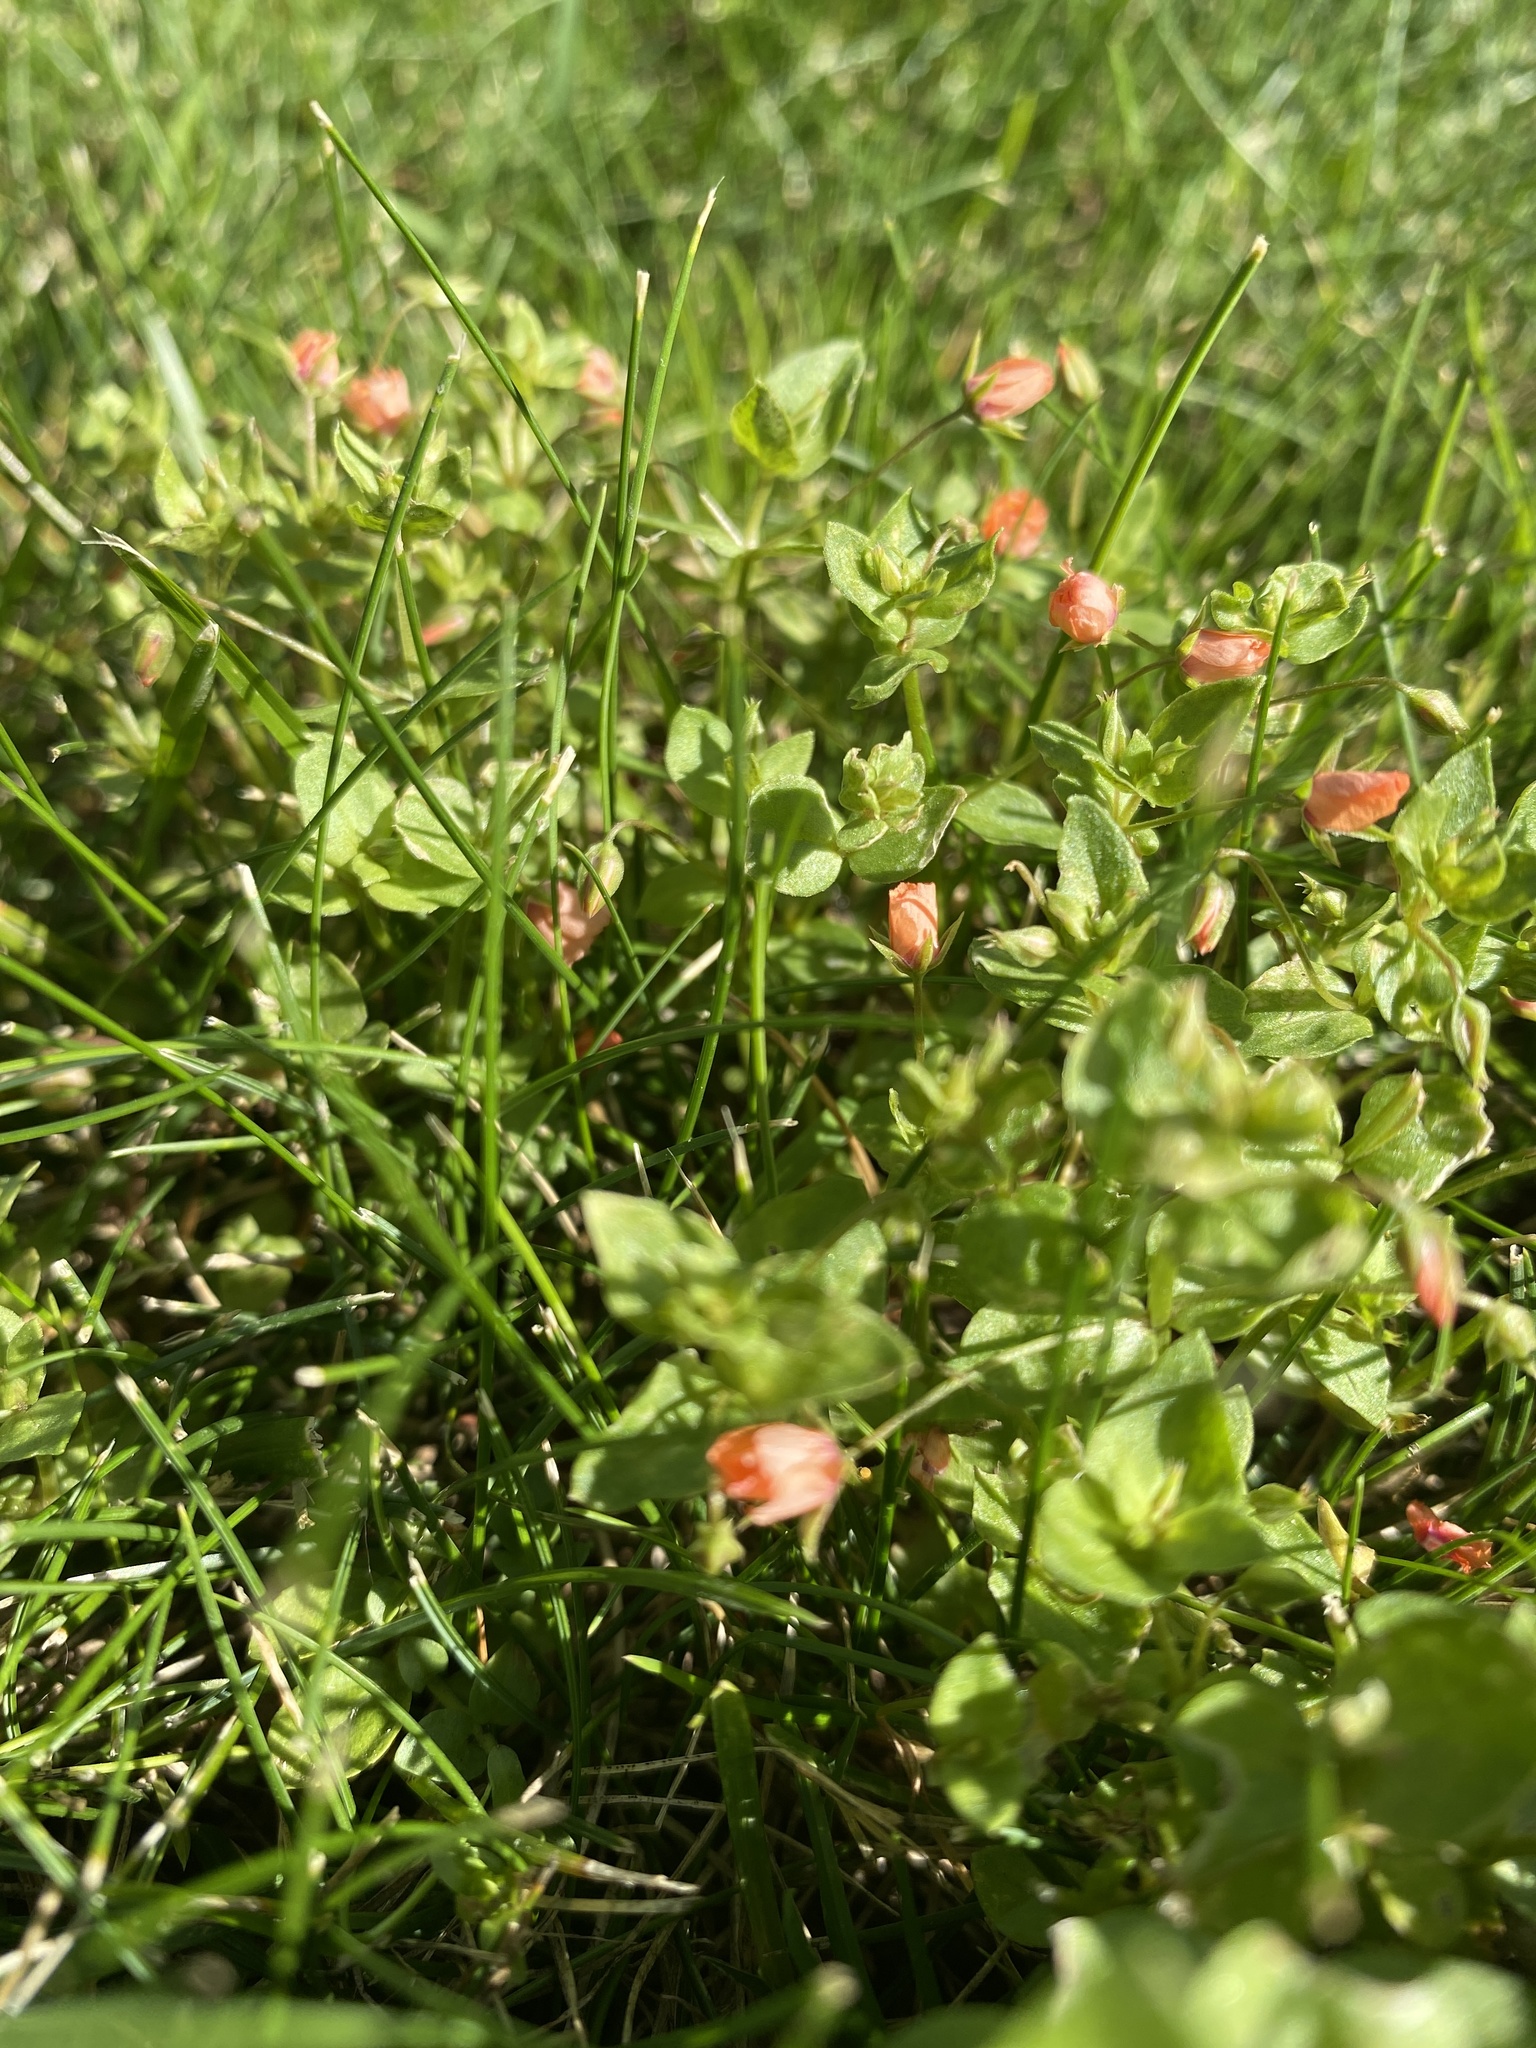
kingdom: Plantae
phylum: Tracheophyta
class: Magnoliopsida
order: Ericales
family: Primulaceae
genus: Lysimachia
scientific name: Lysimachia arvensis
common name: Scarlet pimpernel
